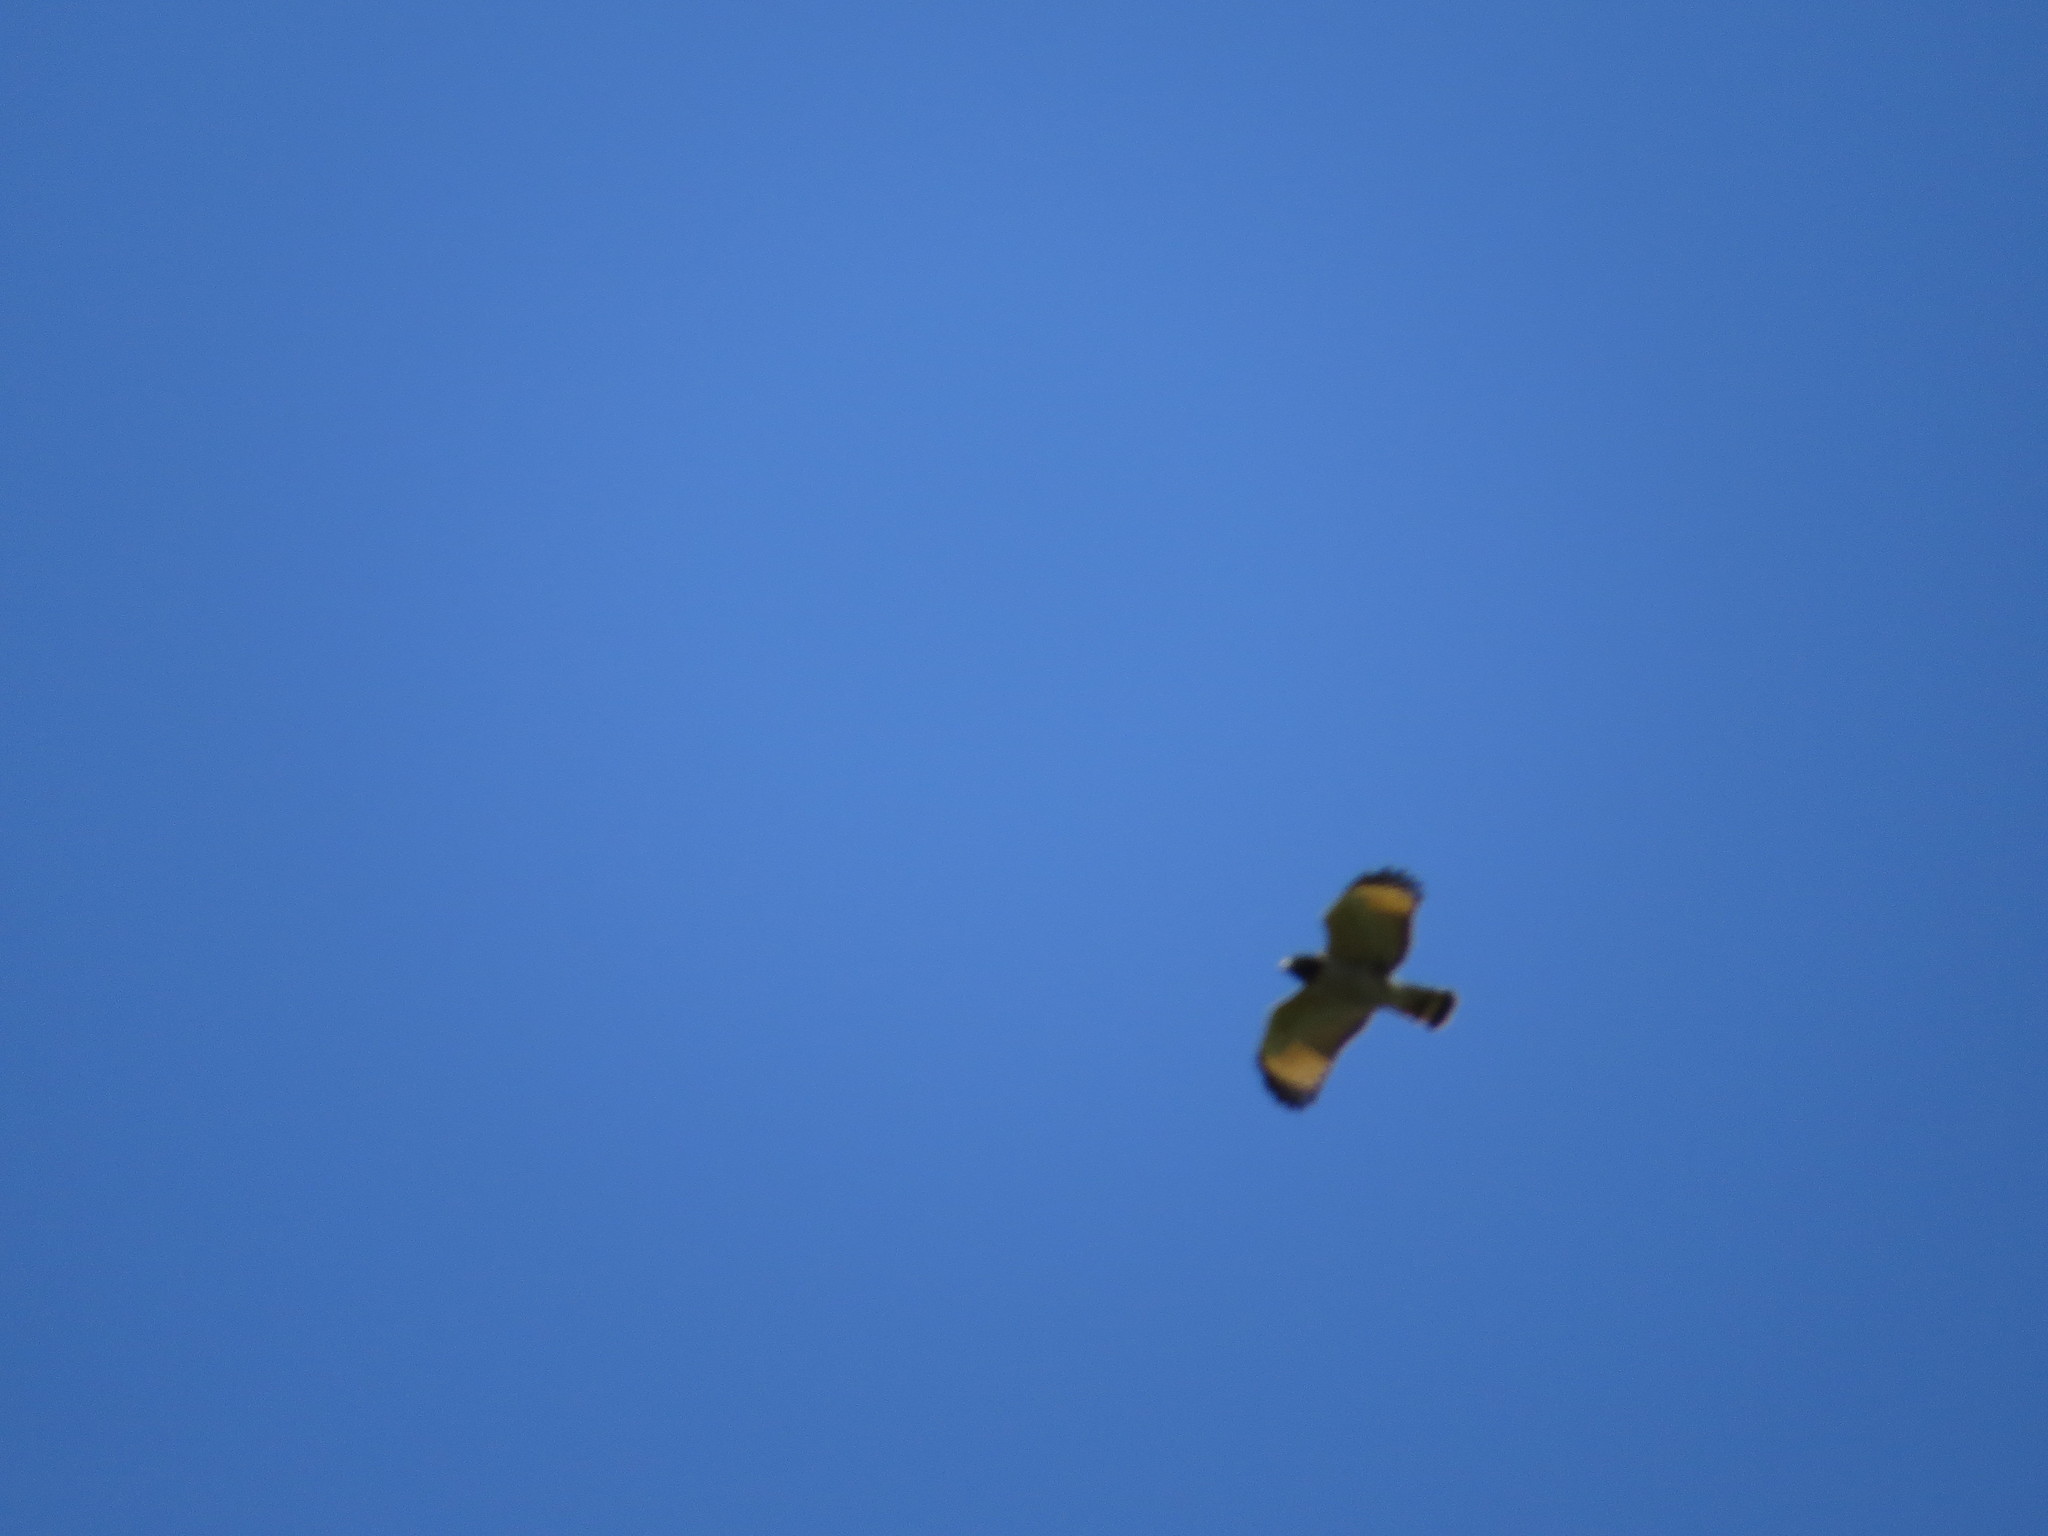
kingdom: Animalia
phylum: Chordata
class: Aves
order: Accipitriformes
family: Accipitridae
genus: Rupornis
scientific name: Rupornis magnirostris
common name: Roadside hawk
